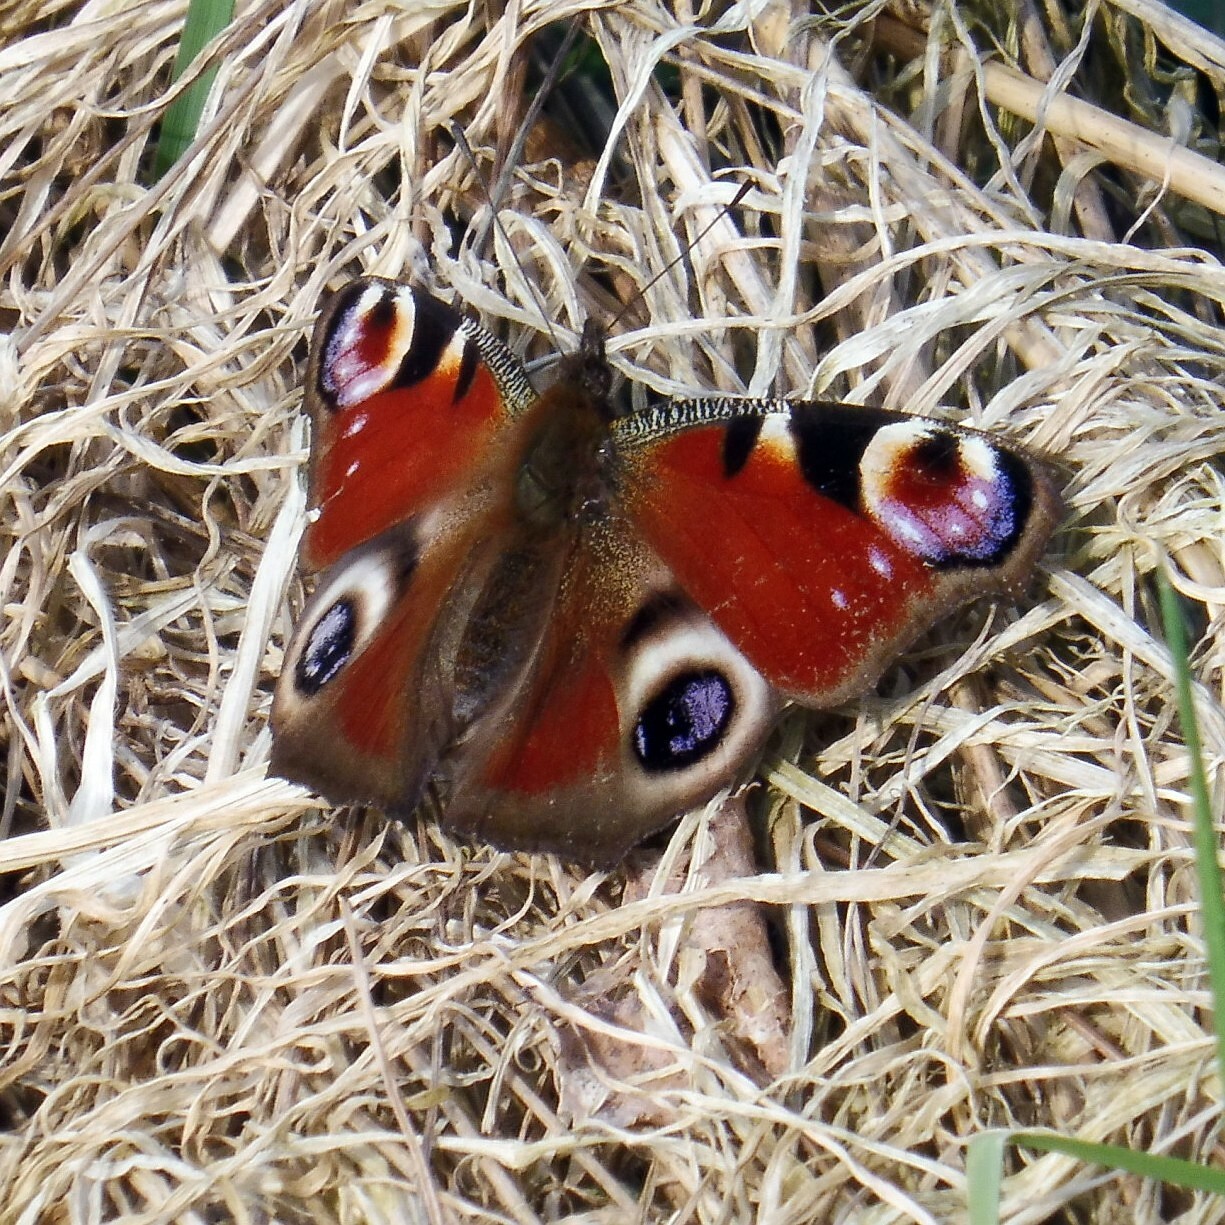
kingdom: Animalia
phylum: Arthropoda
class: Insecta
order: Lepidoptera
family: Nymphalidae
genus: Aglais
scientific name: Aglais io
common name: Peacock
